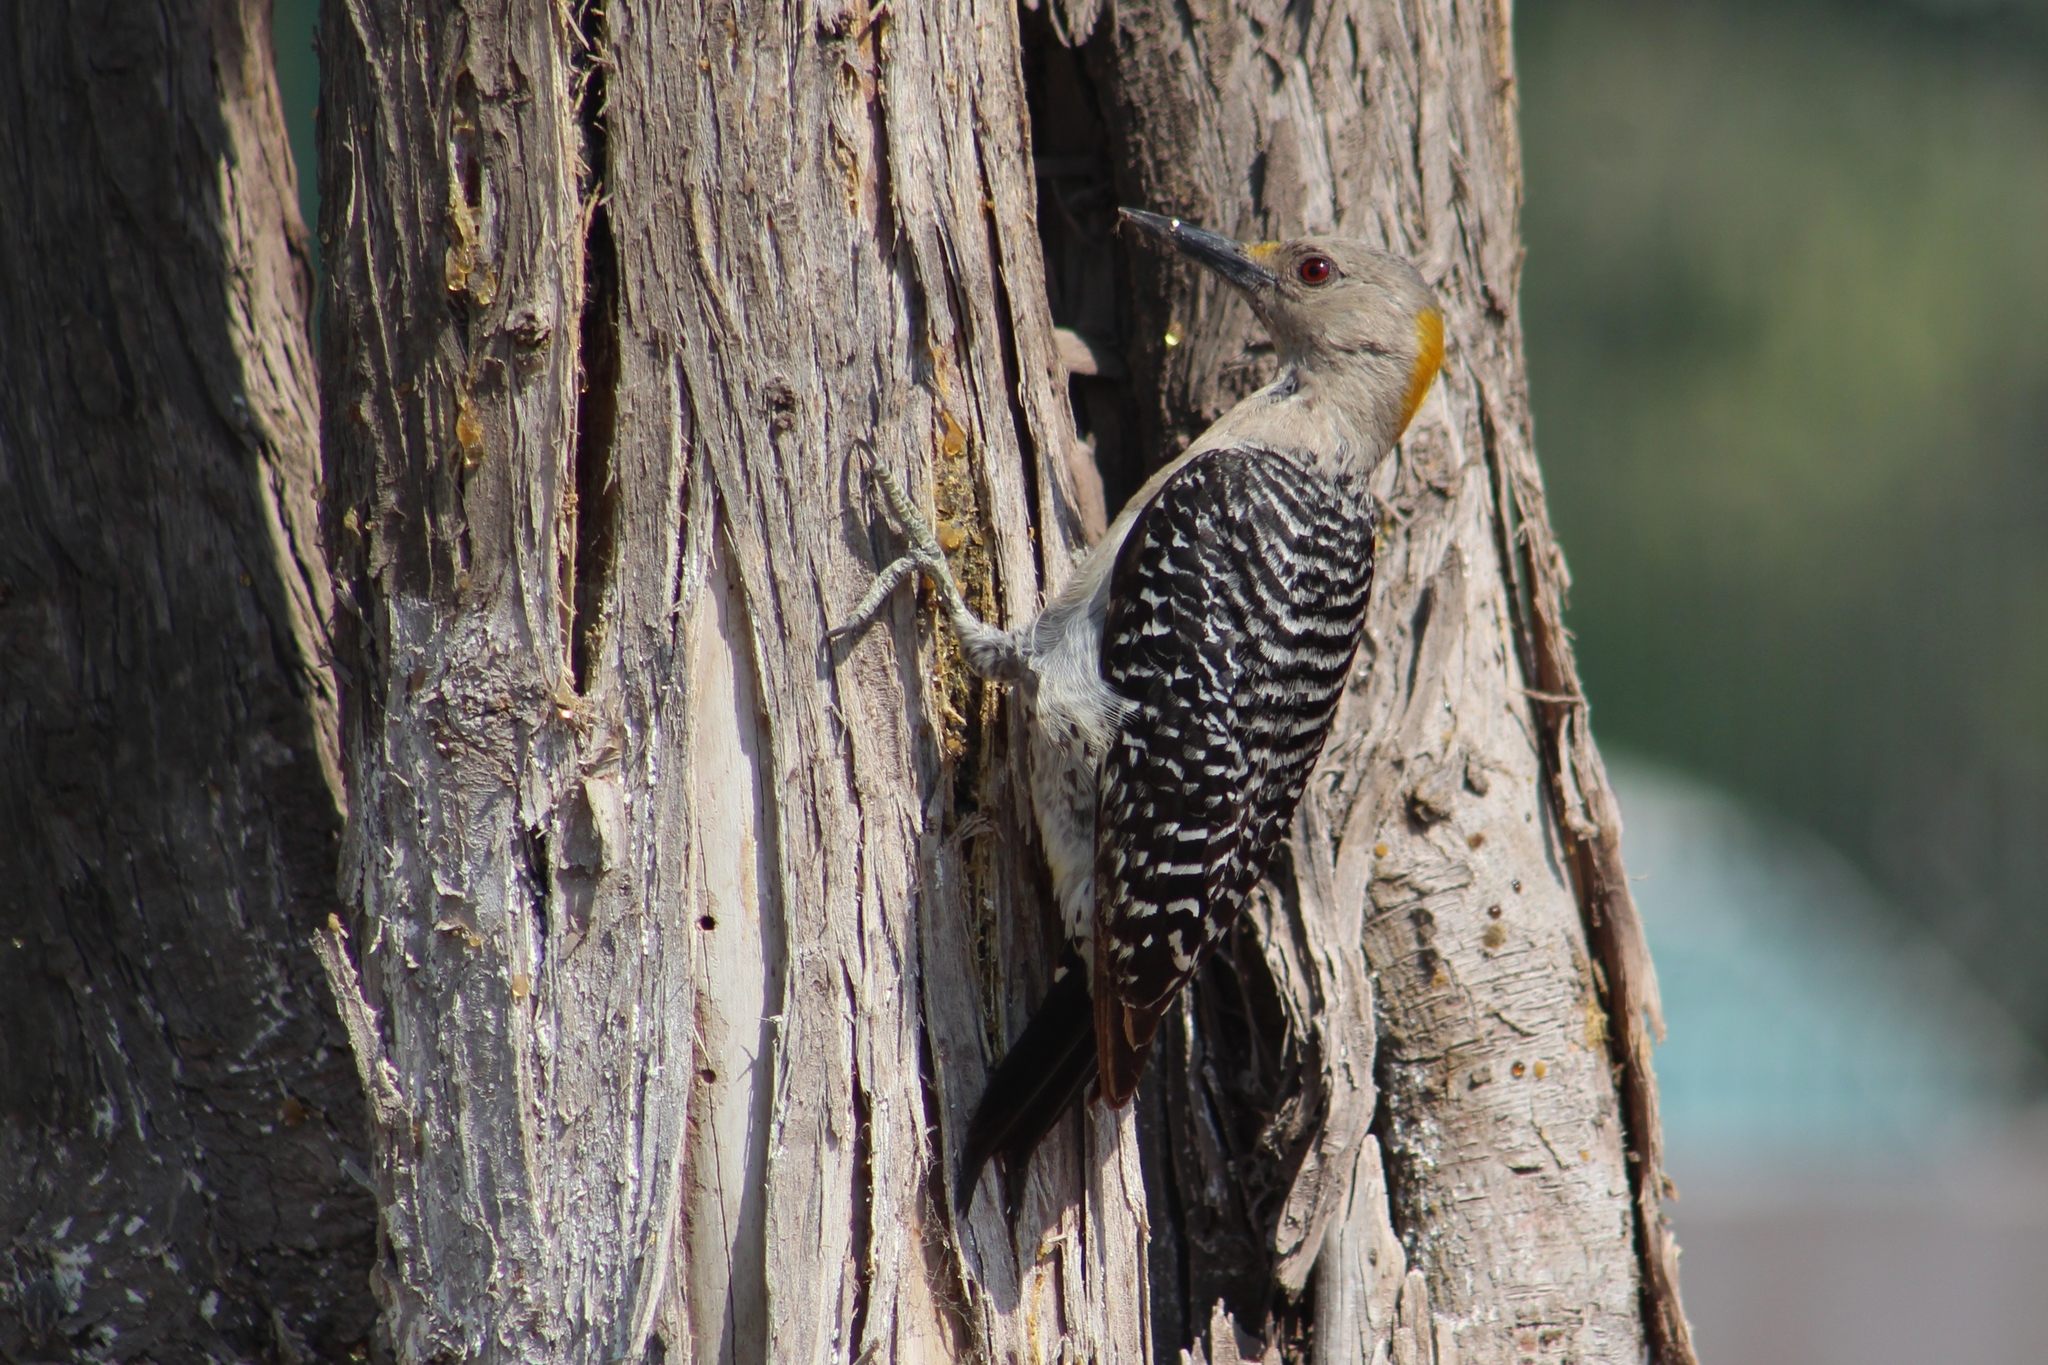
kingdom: Animalia
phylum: Chordata
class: Aves
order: Piciformes
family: Picidae
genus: Melanerpes
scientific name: Melanerpes aurifrons
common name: Golden-fronted woodpecker
